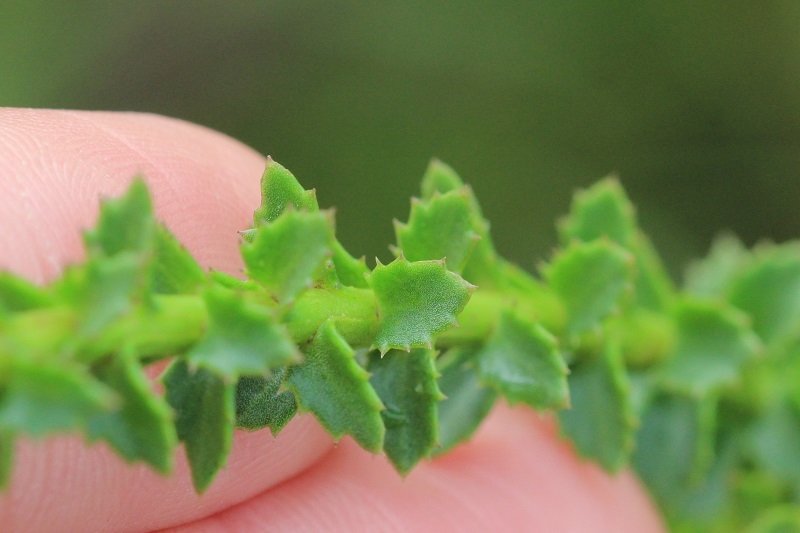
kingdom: Plantae
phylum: Tracheophyta
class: Magnoliopsida
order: Asterales
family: Asteraceae
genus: Athanasia
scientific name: Athanasia dentata
